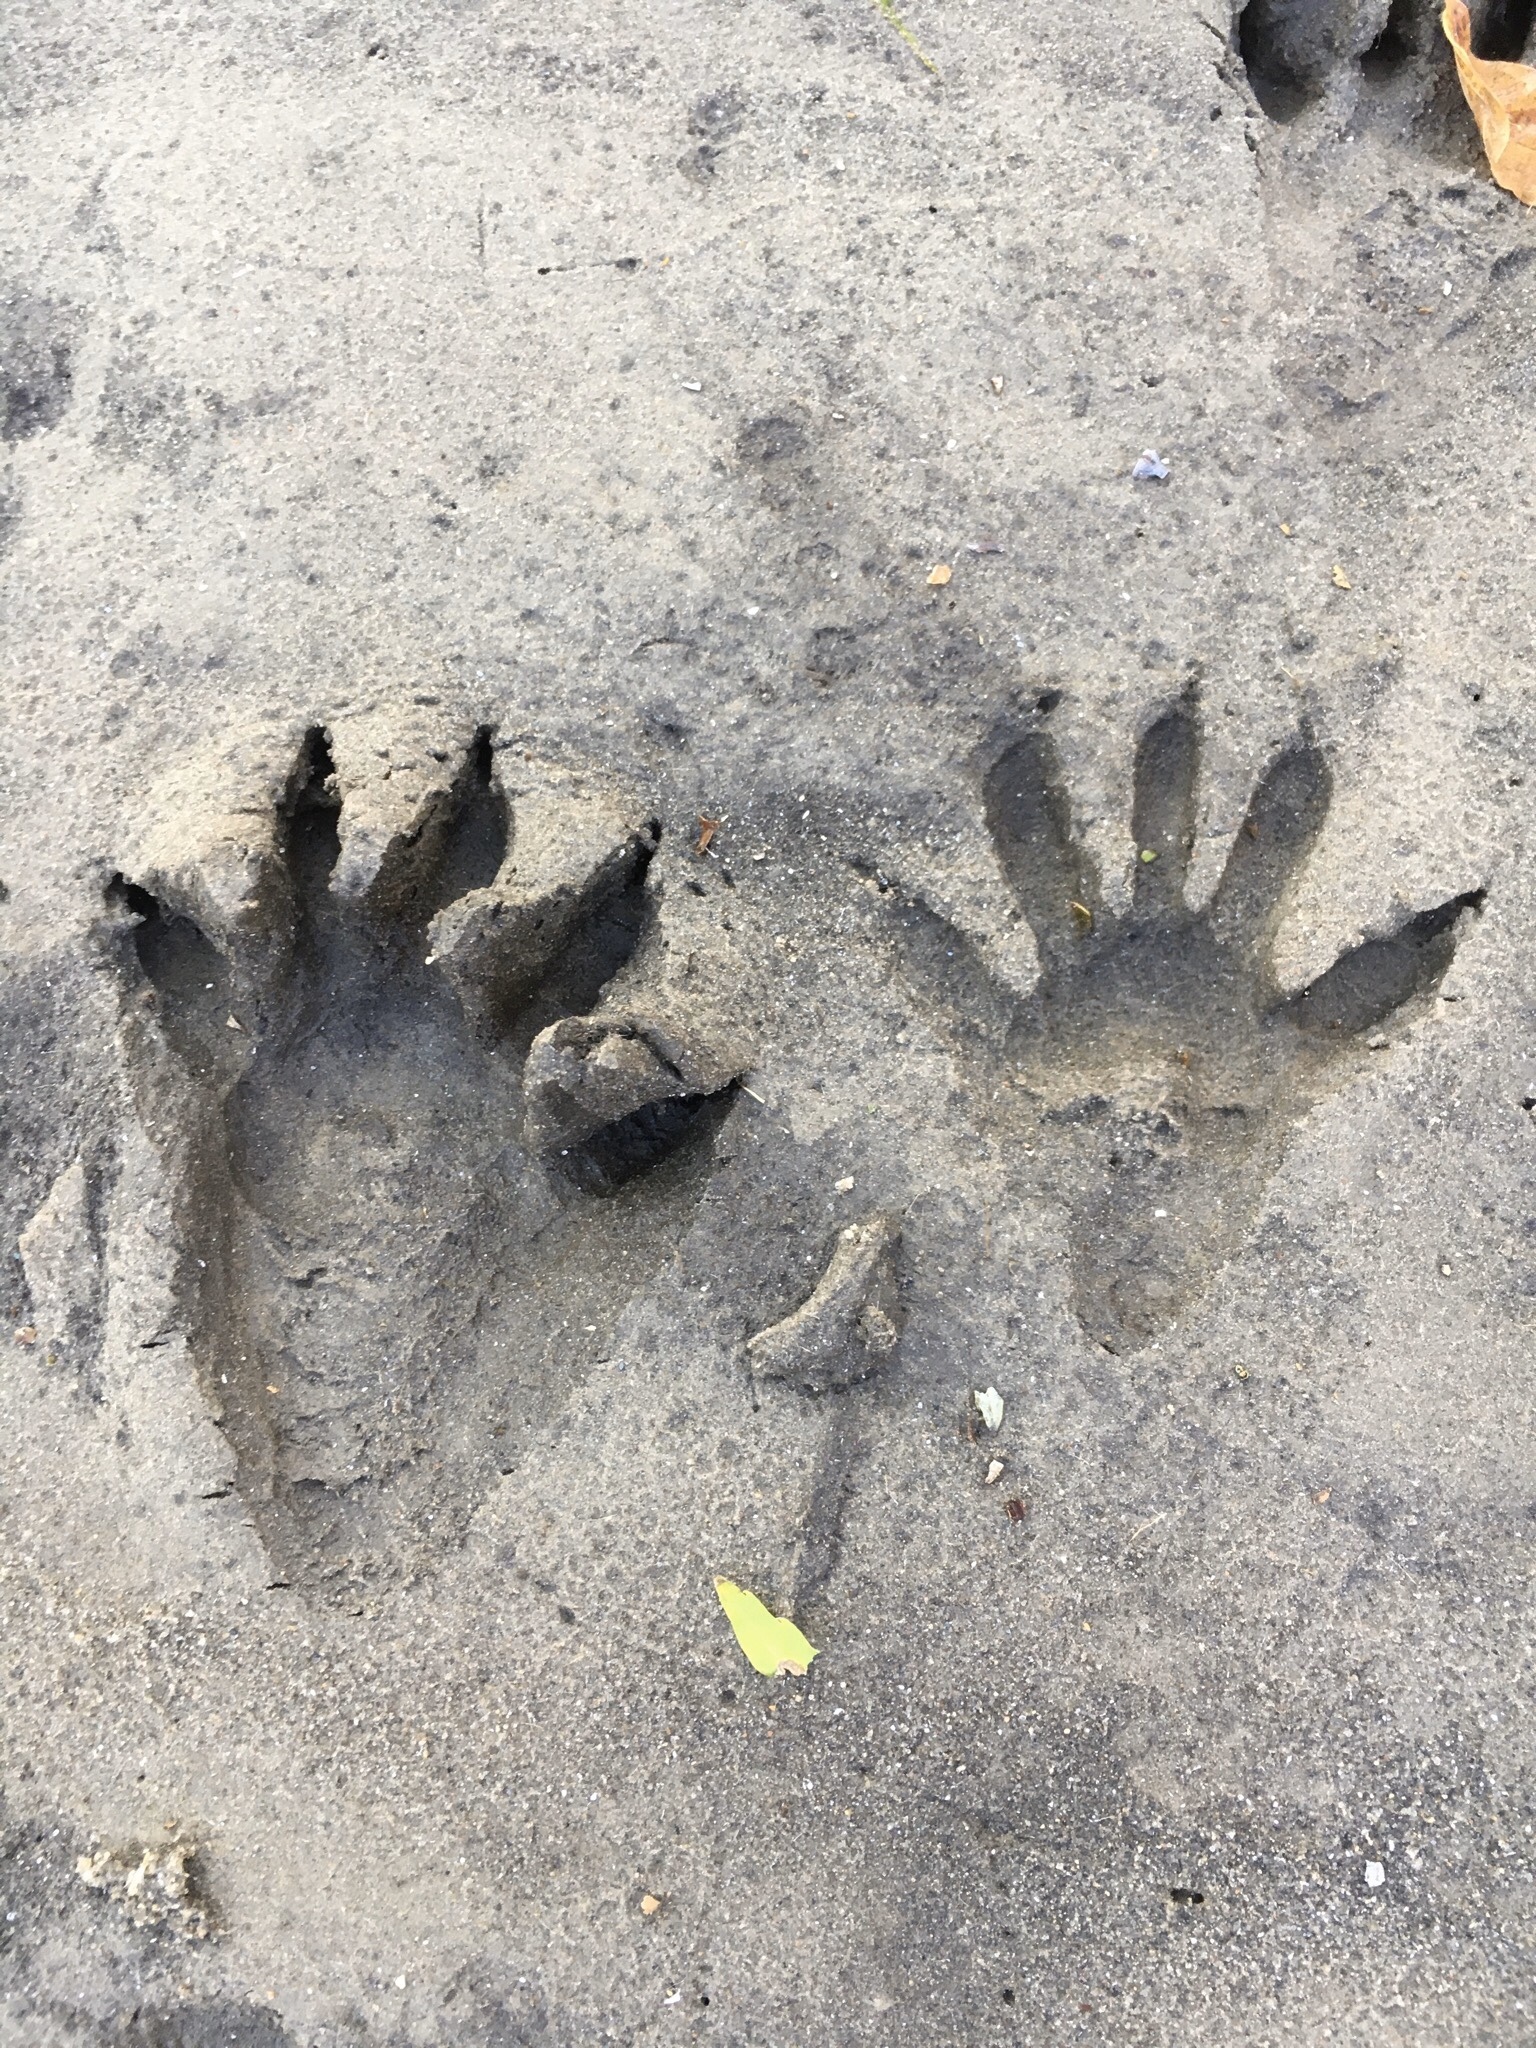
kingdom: Animalia
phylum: Chordata
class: Mammalia
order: Carnivora
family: Procyonidae
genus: Procyon
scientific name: Procyon lotor
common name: Raccoon
